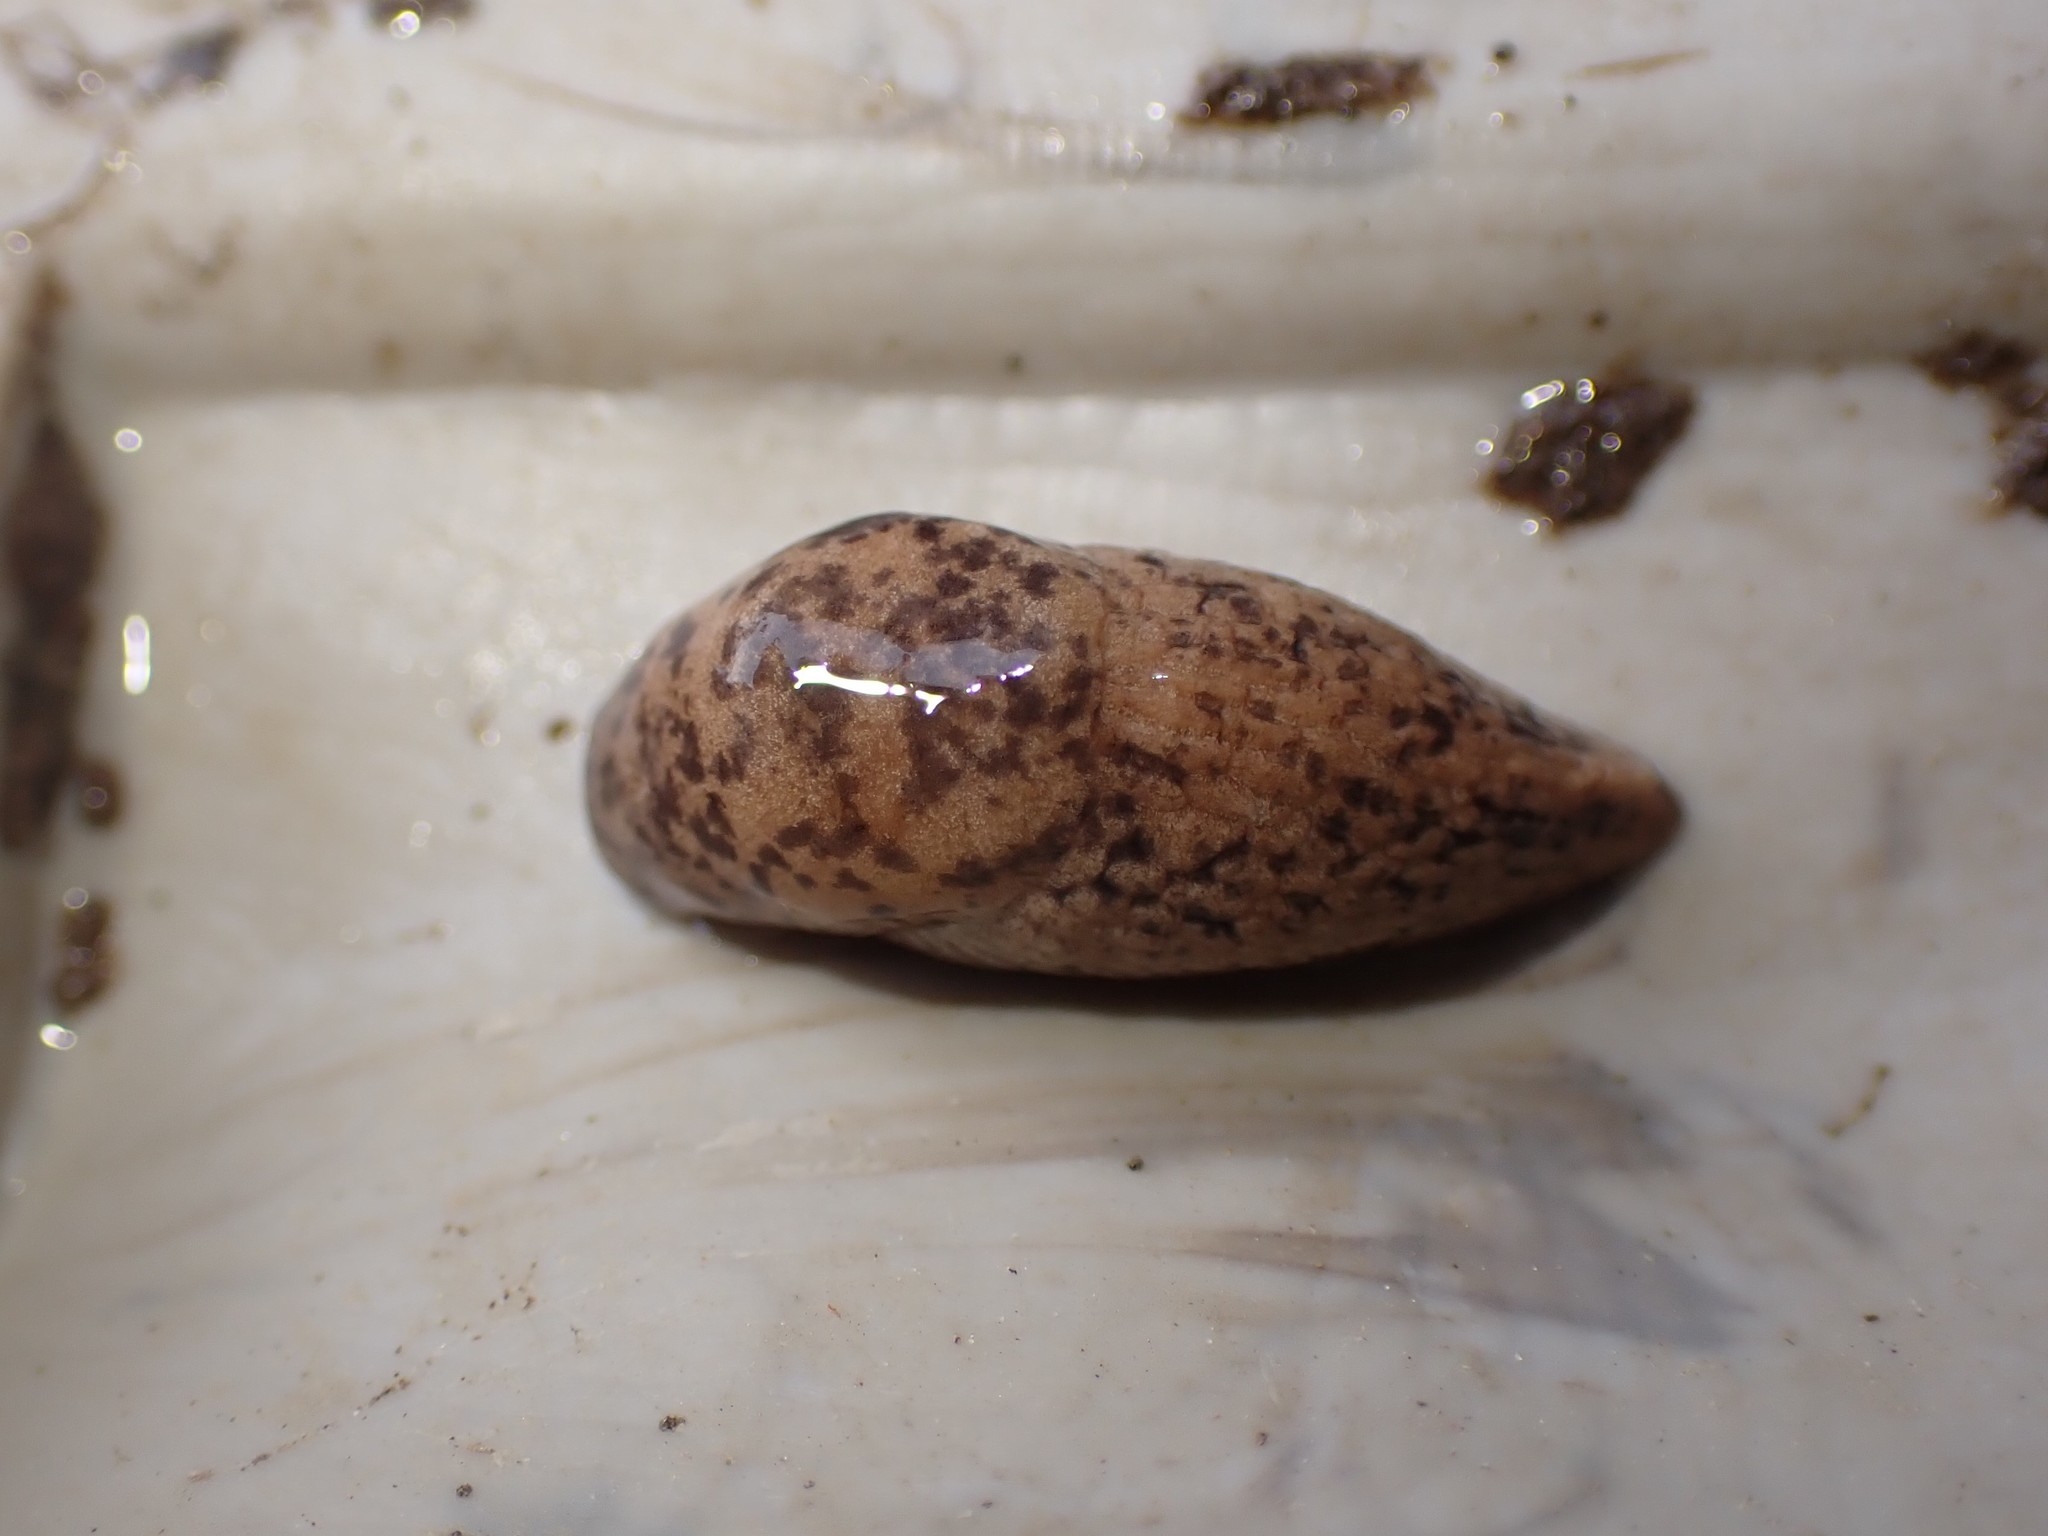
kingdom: Animalia
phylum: Mollusca
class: Gastropoda
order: Stylommatophora
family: Agriolimacidae
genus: Deroceras
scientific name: Deroceras reticulatum
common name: Gray field slug
